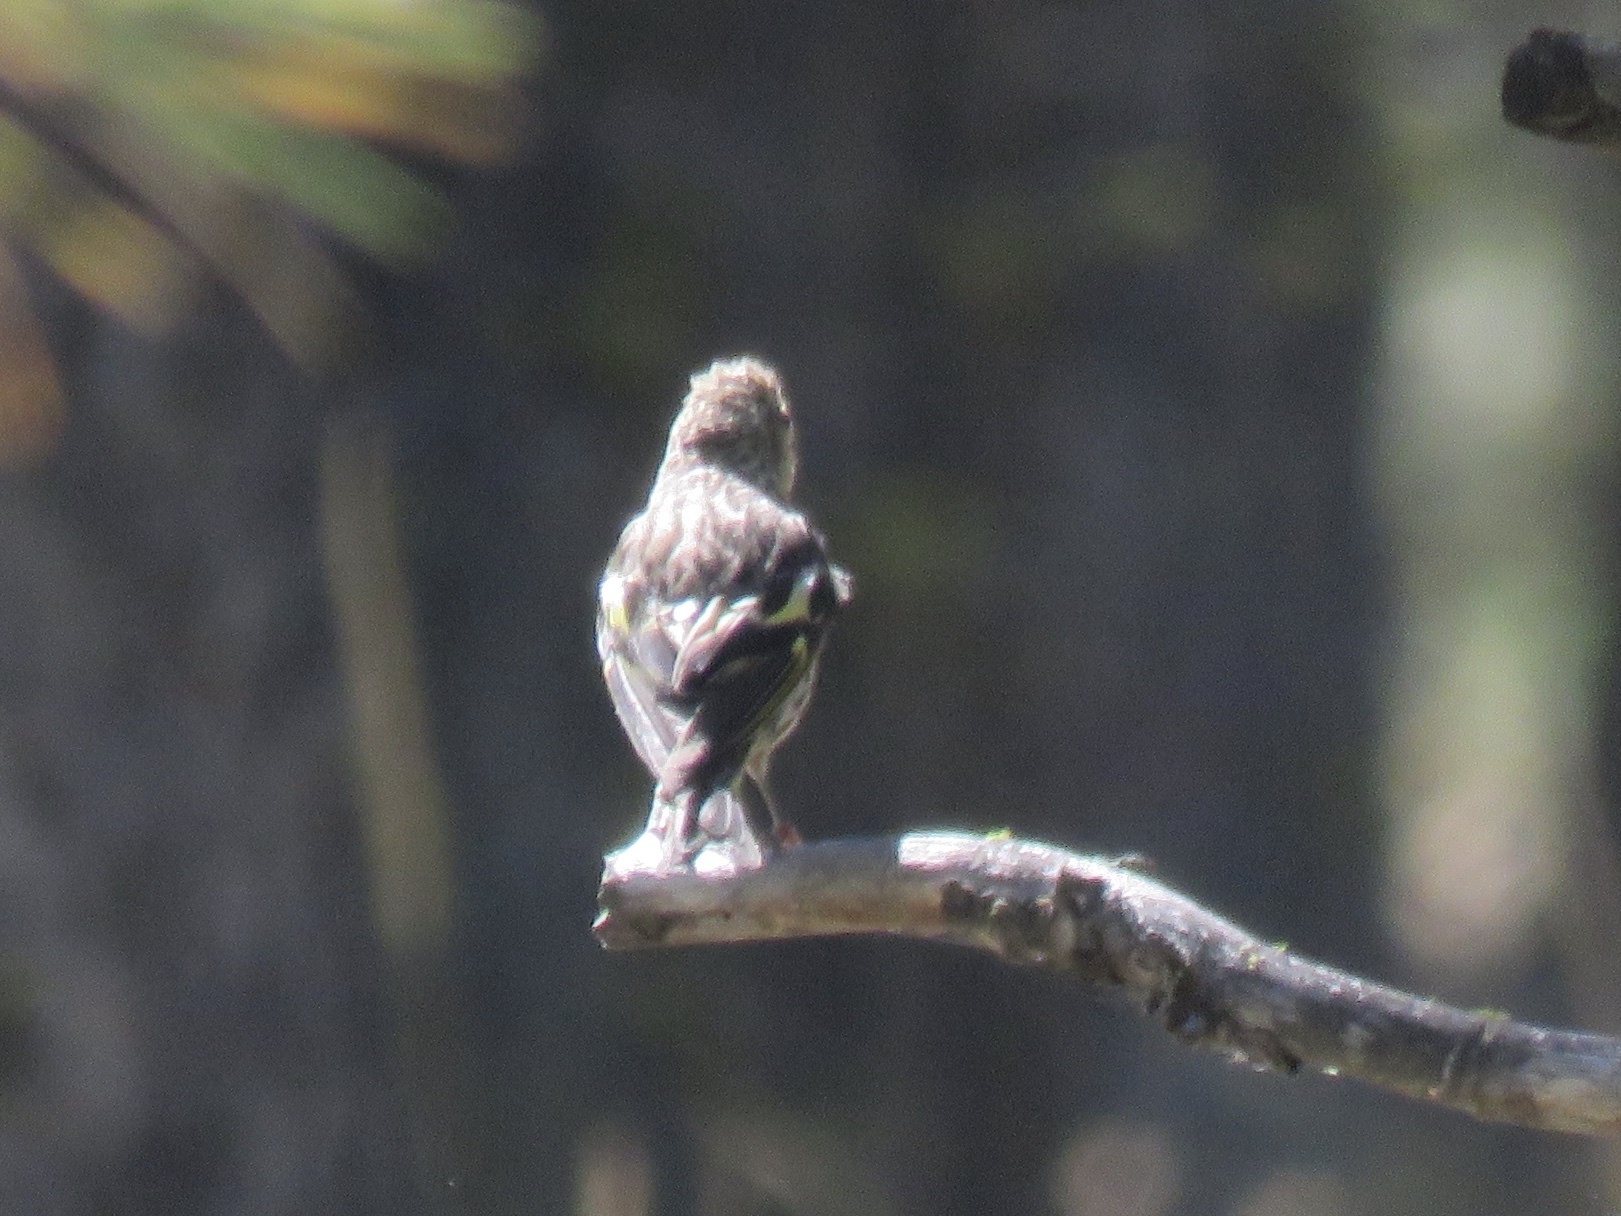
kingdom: Animalia
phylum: Chordata
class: Aves
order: Passeriformes
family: Fringillidae
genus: Spinus
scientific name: Spinus pinus
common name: Pine siskin
